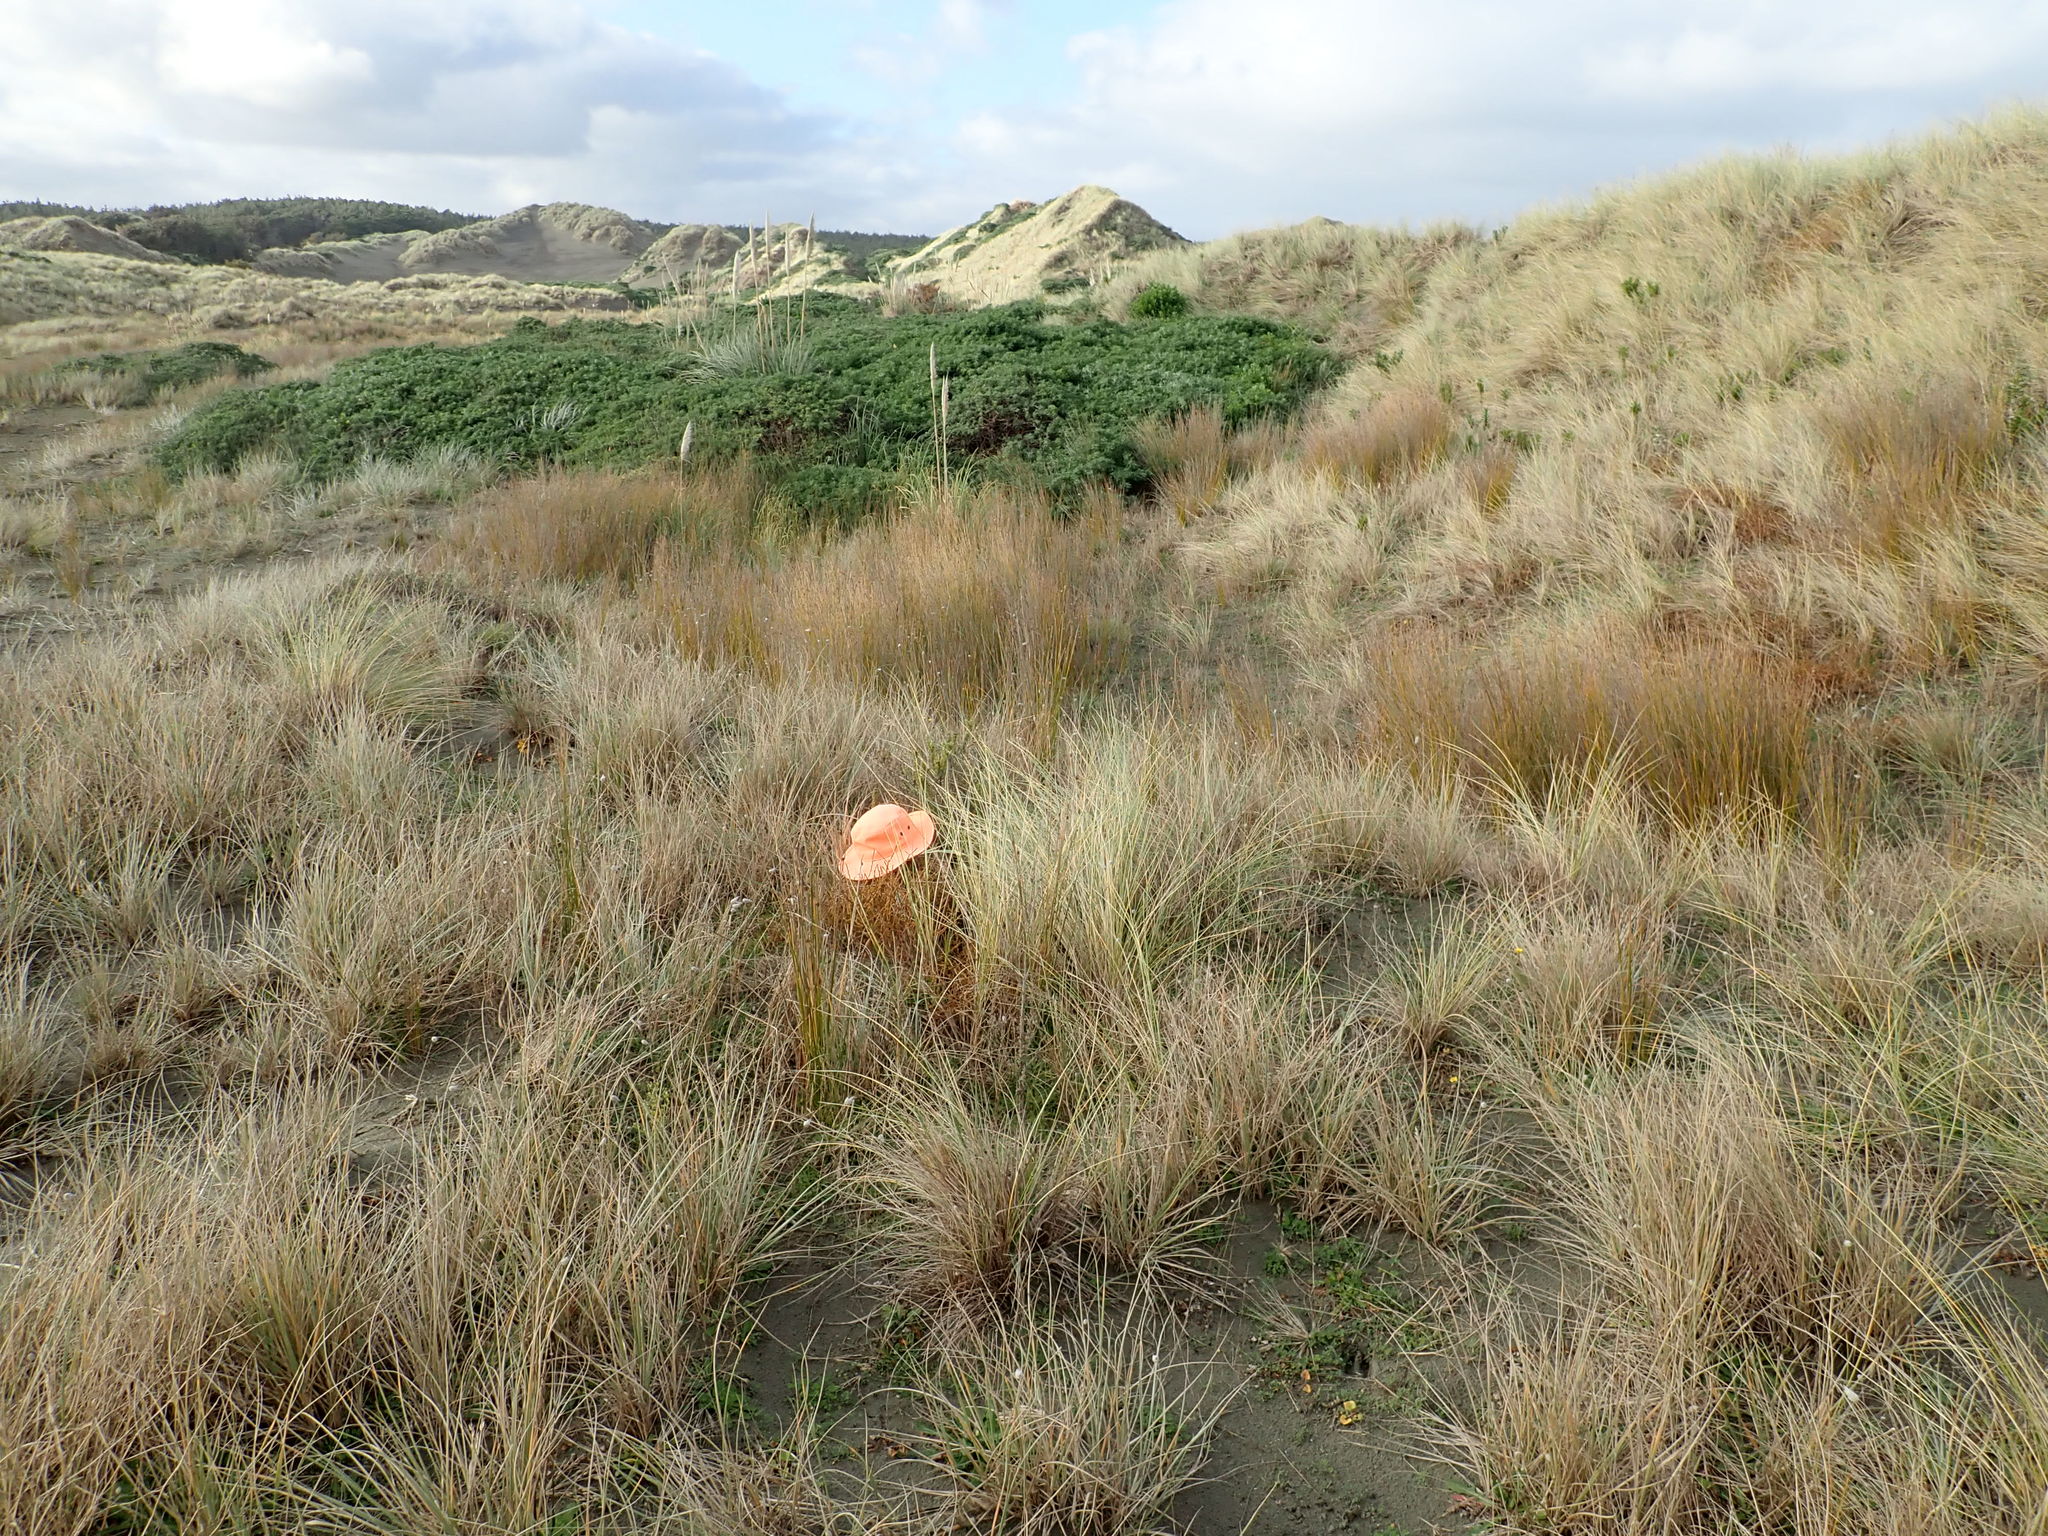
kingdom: Plantae
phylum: Tracheophyta
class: Magnoliopsida
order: Gentianales
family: Rubiaceae
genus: Coprosma
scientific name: Coprosma acerosa
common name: Sand coprosma
